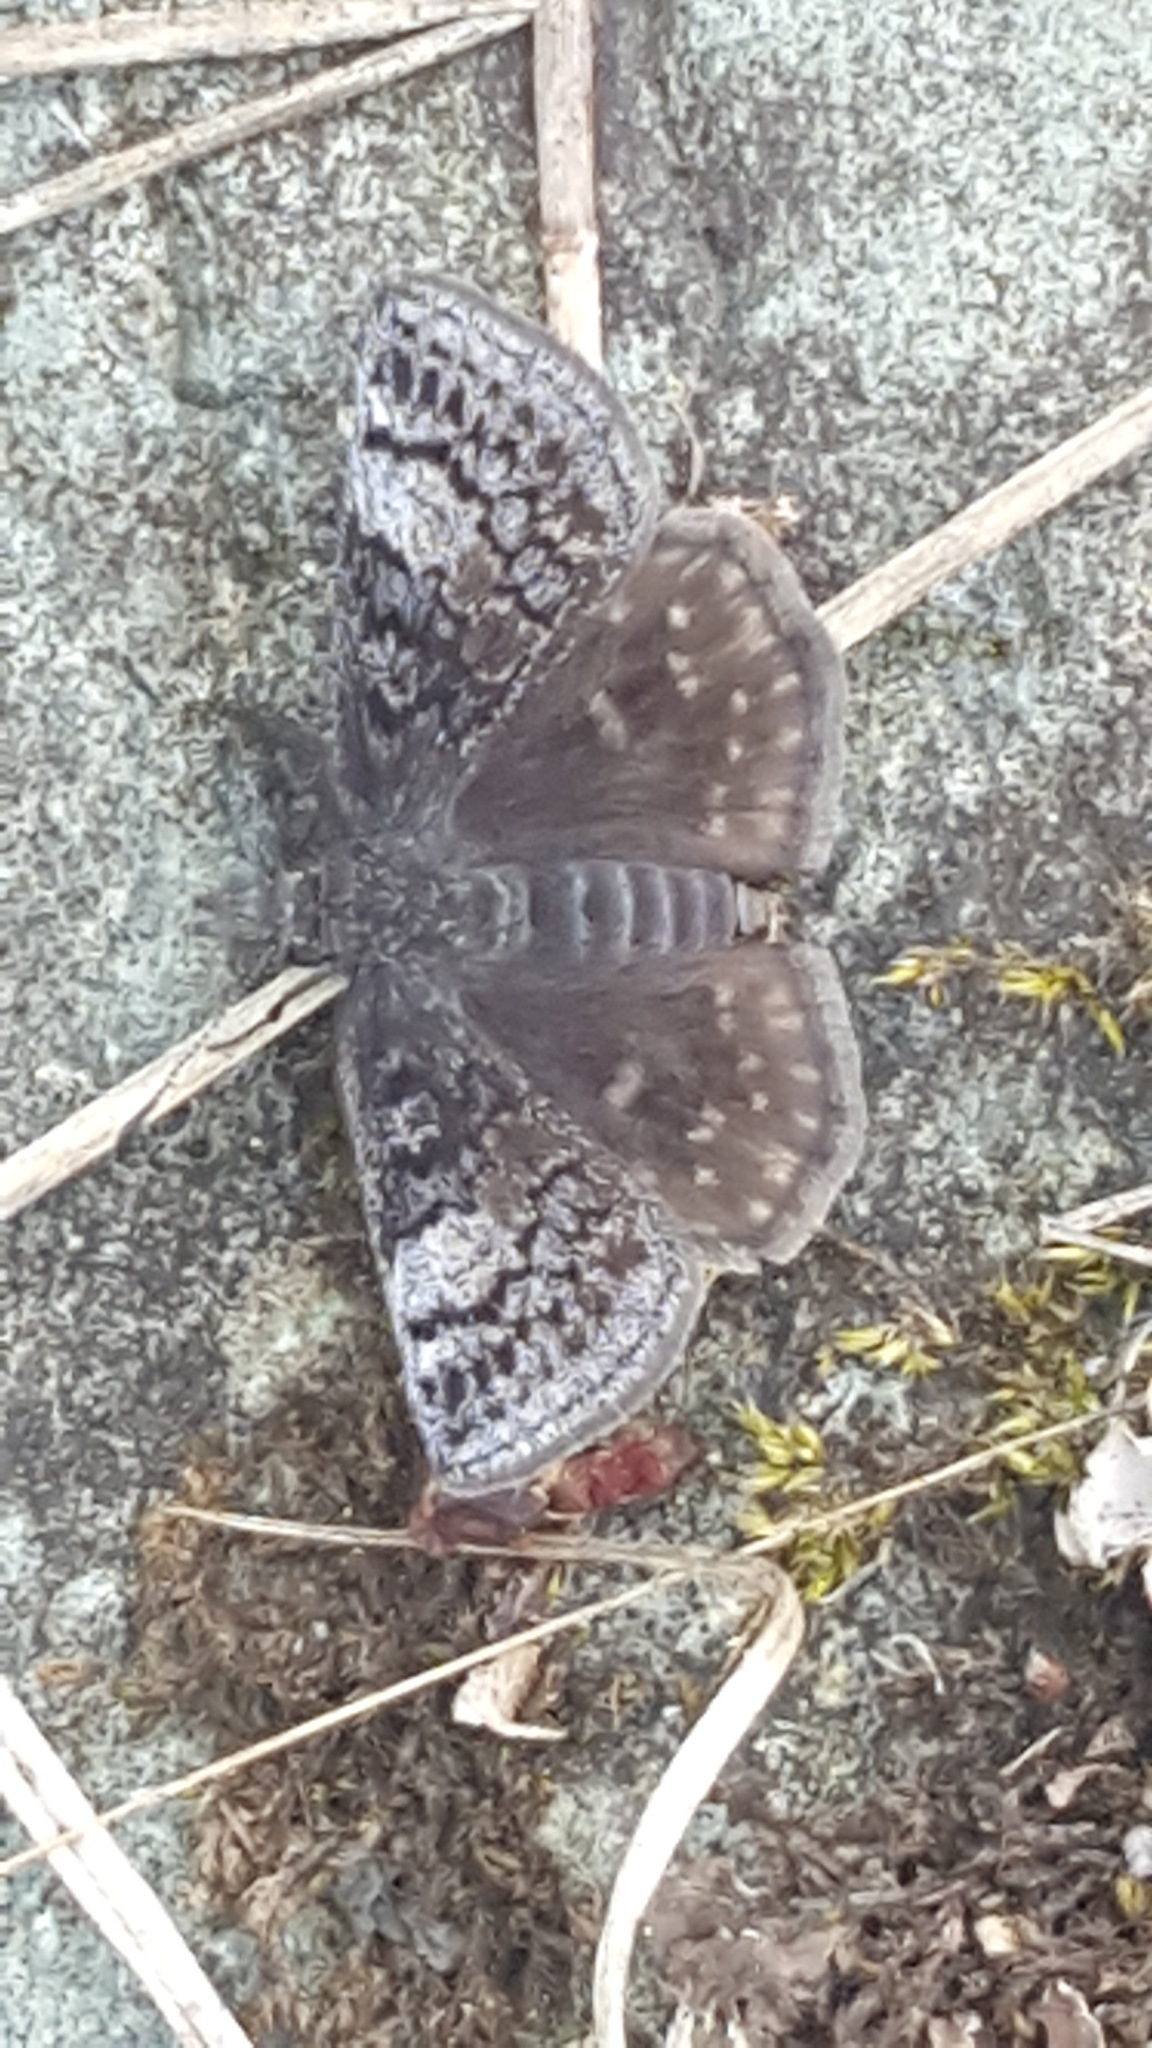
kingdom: Animalia
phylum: Arthropoda
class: Insecta
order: Lepidoptera
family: Hesperiidae
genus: Erynnis
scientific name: Erynnis icelus
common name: Dreamy duskywing
